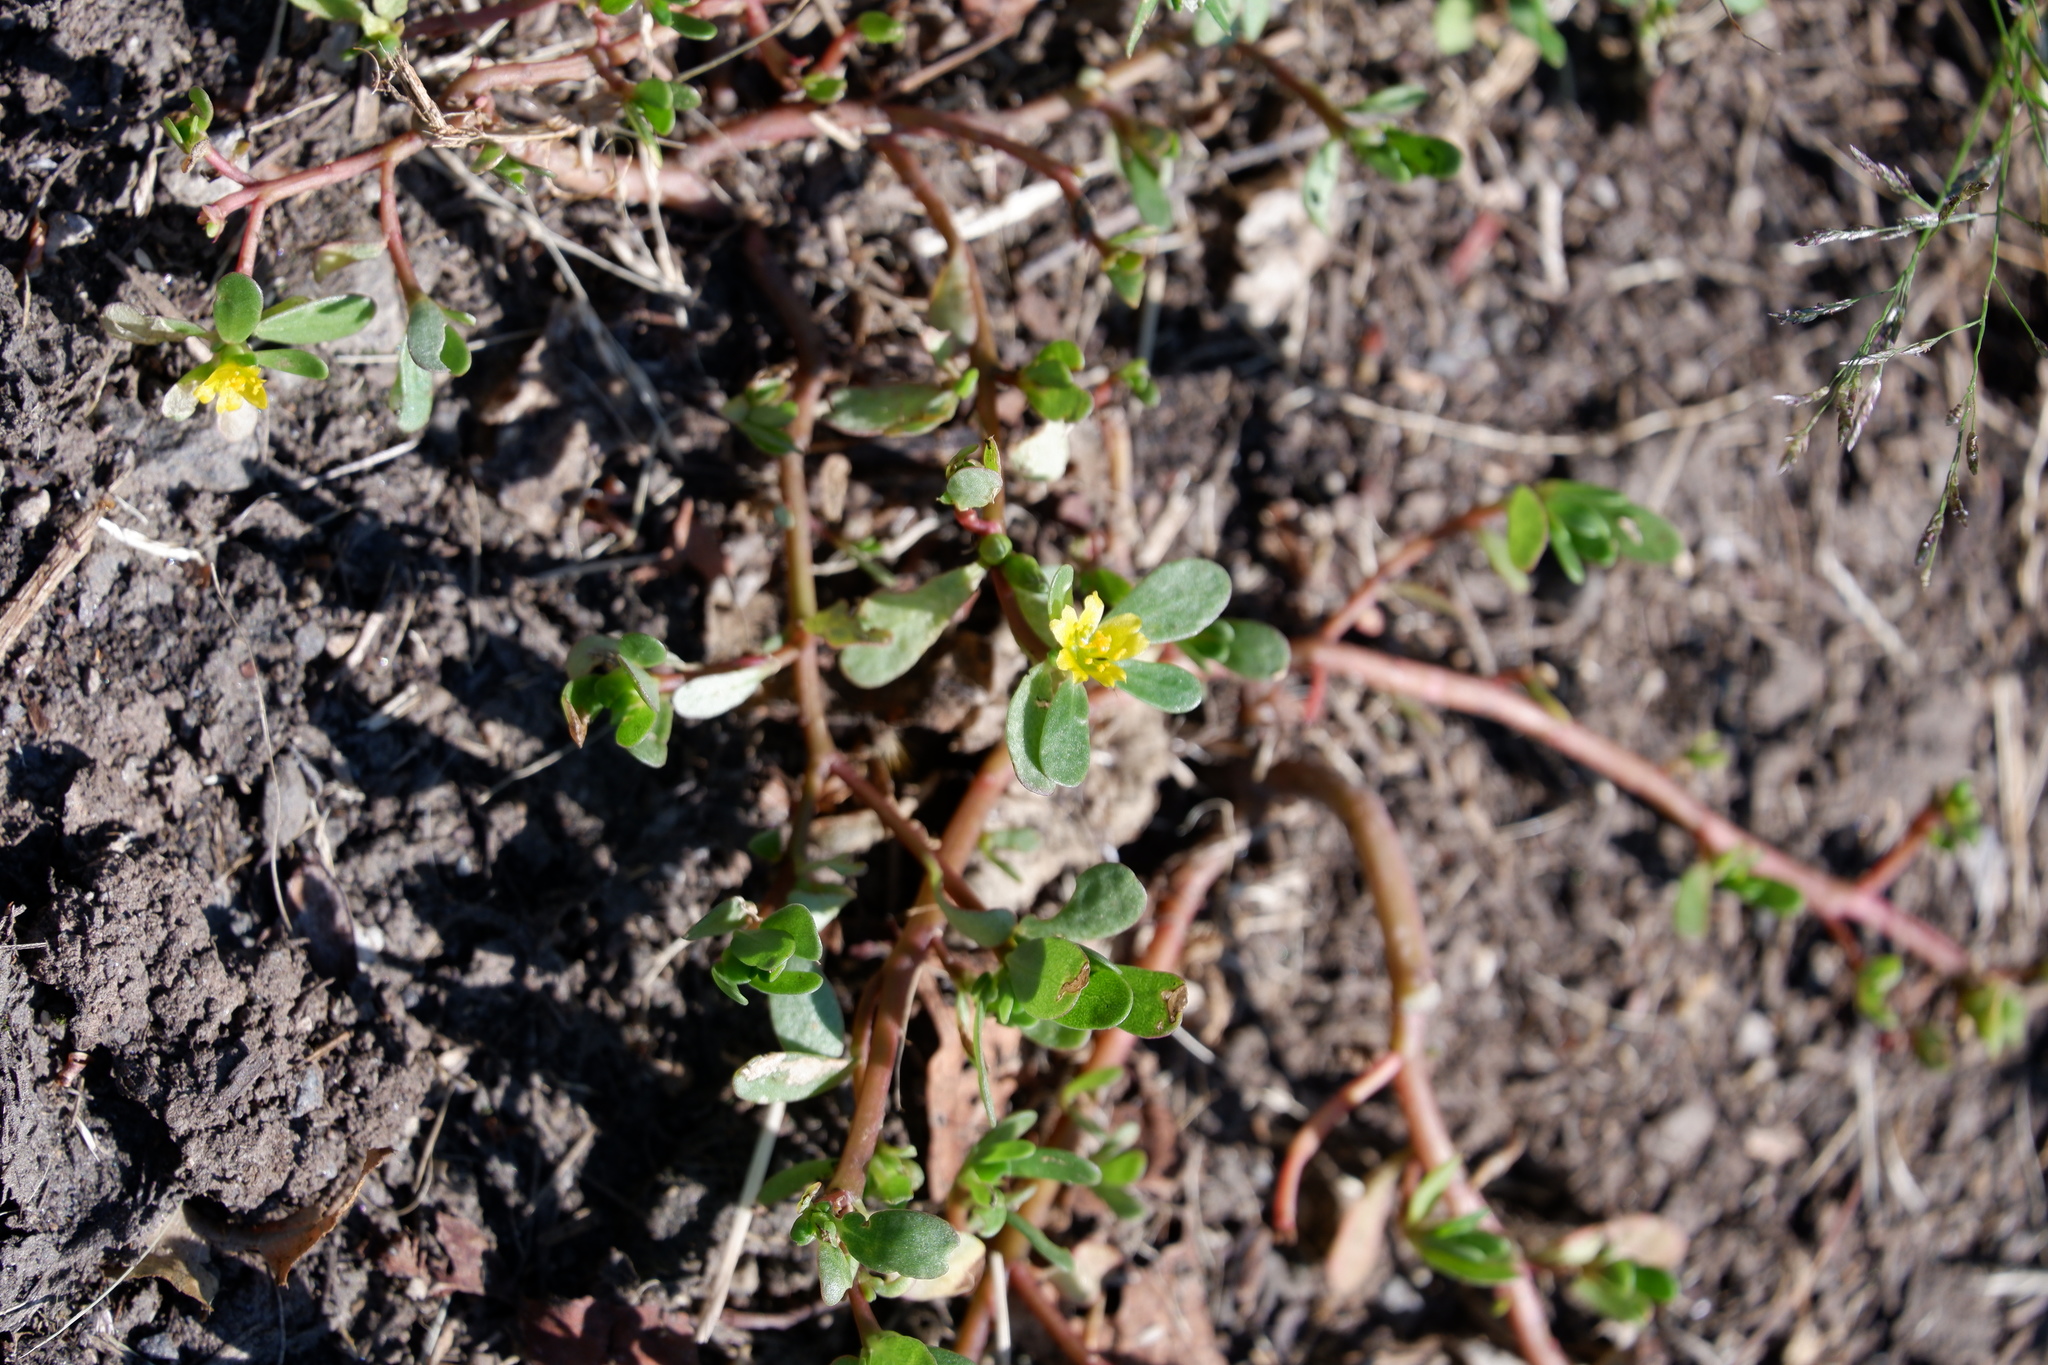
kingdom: Plantae
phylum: Tracheophyta
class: Magnoliopsida
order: Caryophyllales
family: Portulacaceae
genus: Portulaca
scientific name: Portulaca oleracea
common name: Common purslane
